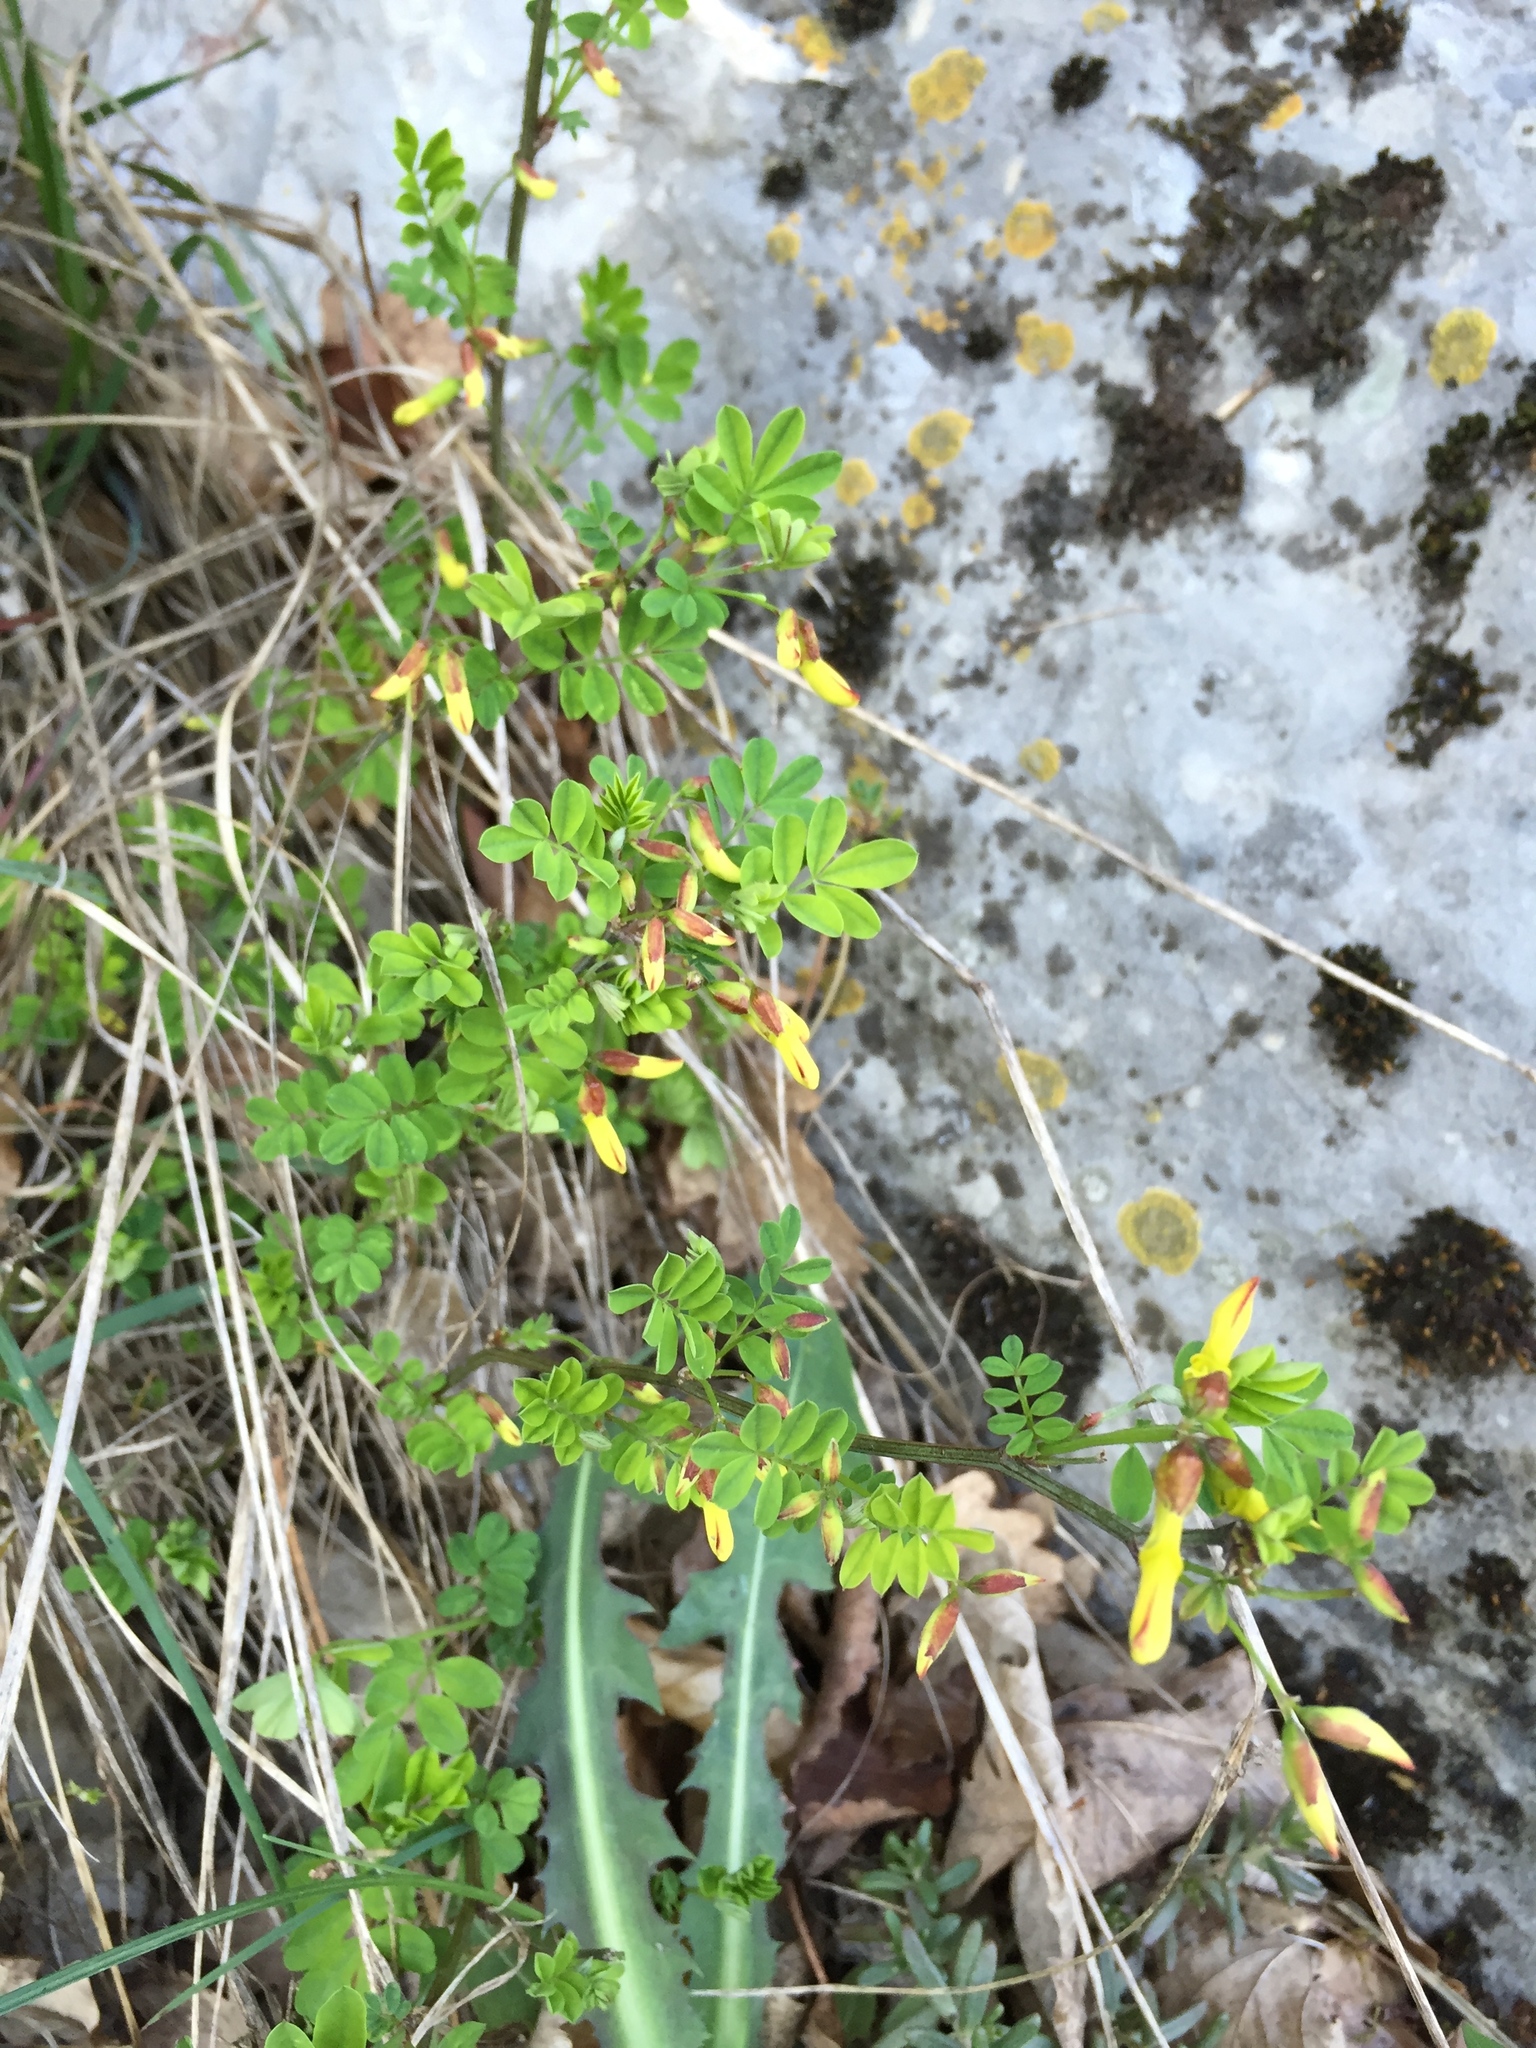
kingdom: Plantae
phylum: Tracheophyta
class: Magnoliopsida
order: Fabales
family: Fabaceae
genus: Hippocrepis
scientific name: Hippocrepis emerus
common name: Scorpion senna
